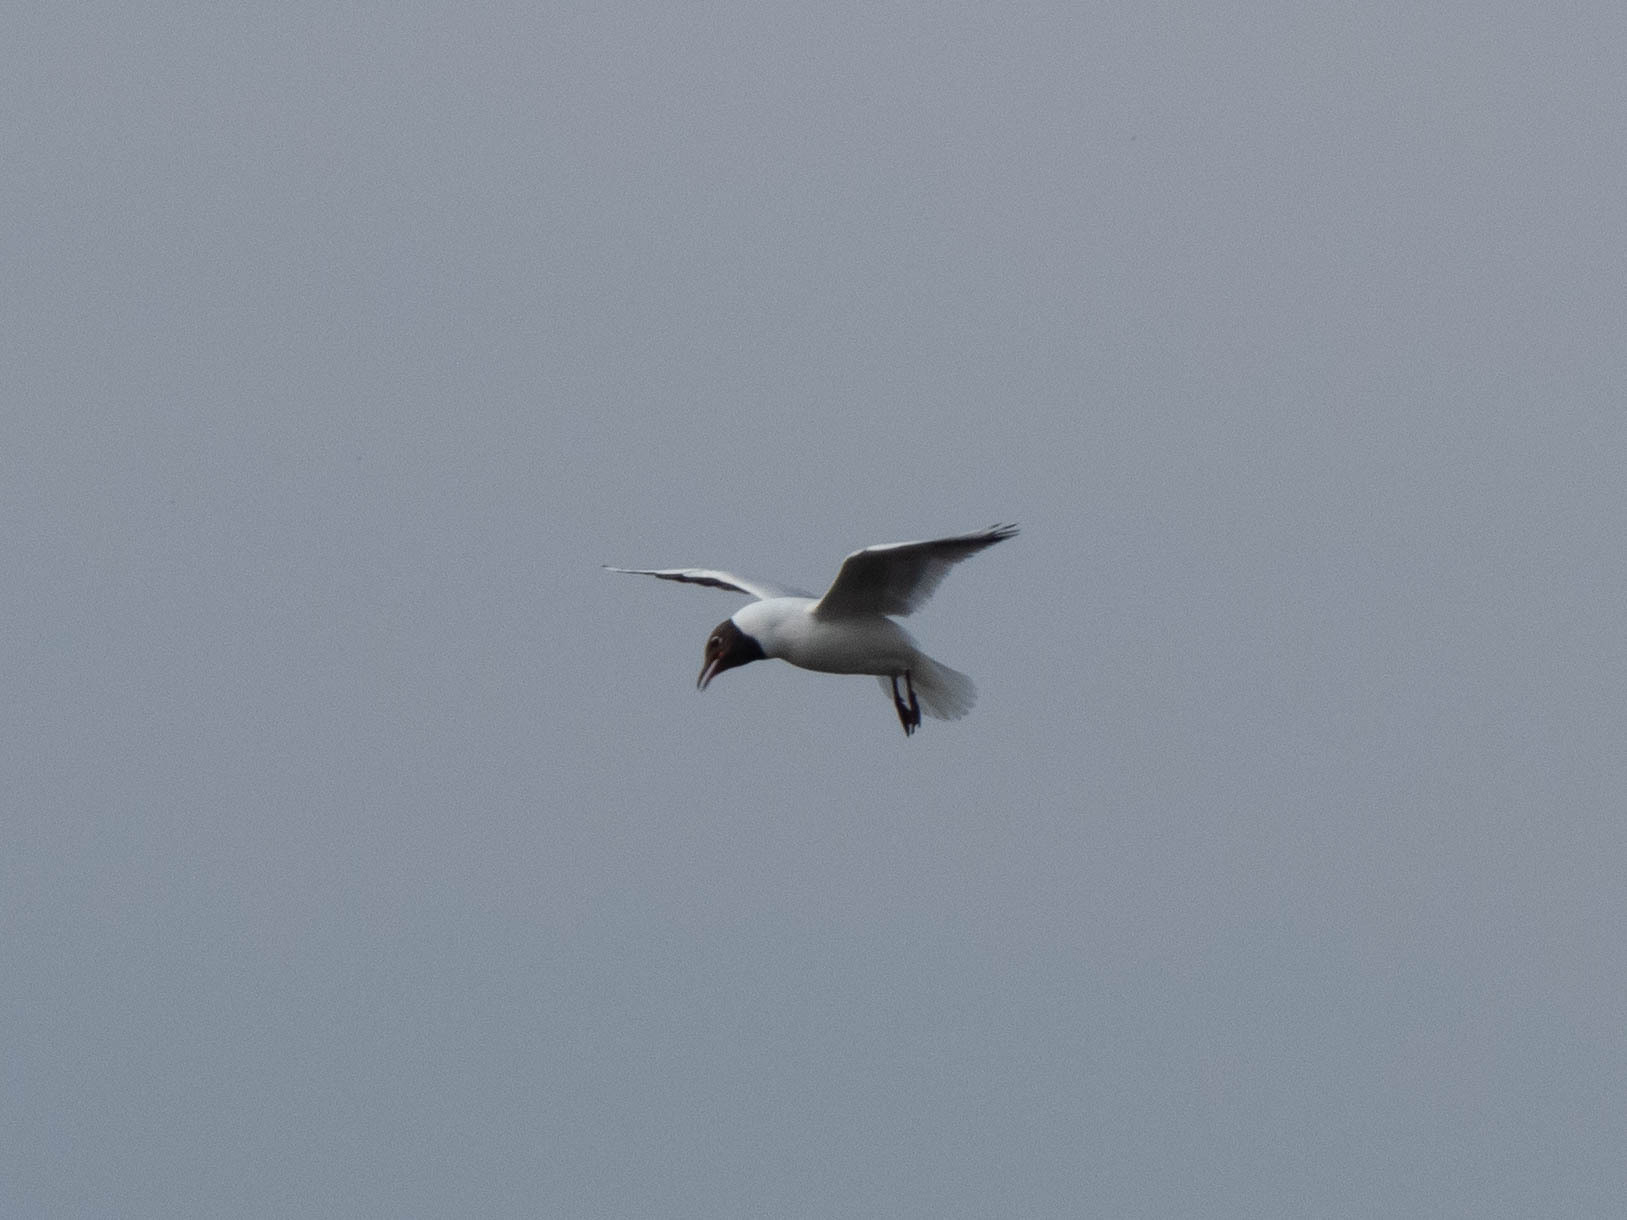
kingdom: Animalia
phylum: Chordata
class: Aves
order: Charadriiformes
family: Laridae
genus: Chroicocephalus
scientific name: Chroicocephalus ridibundus
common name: Black-headed gull
